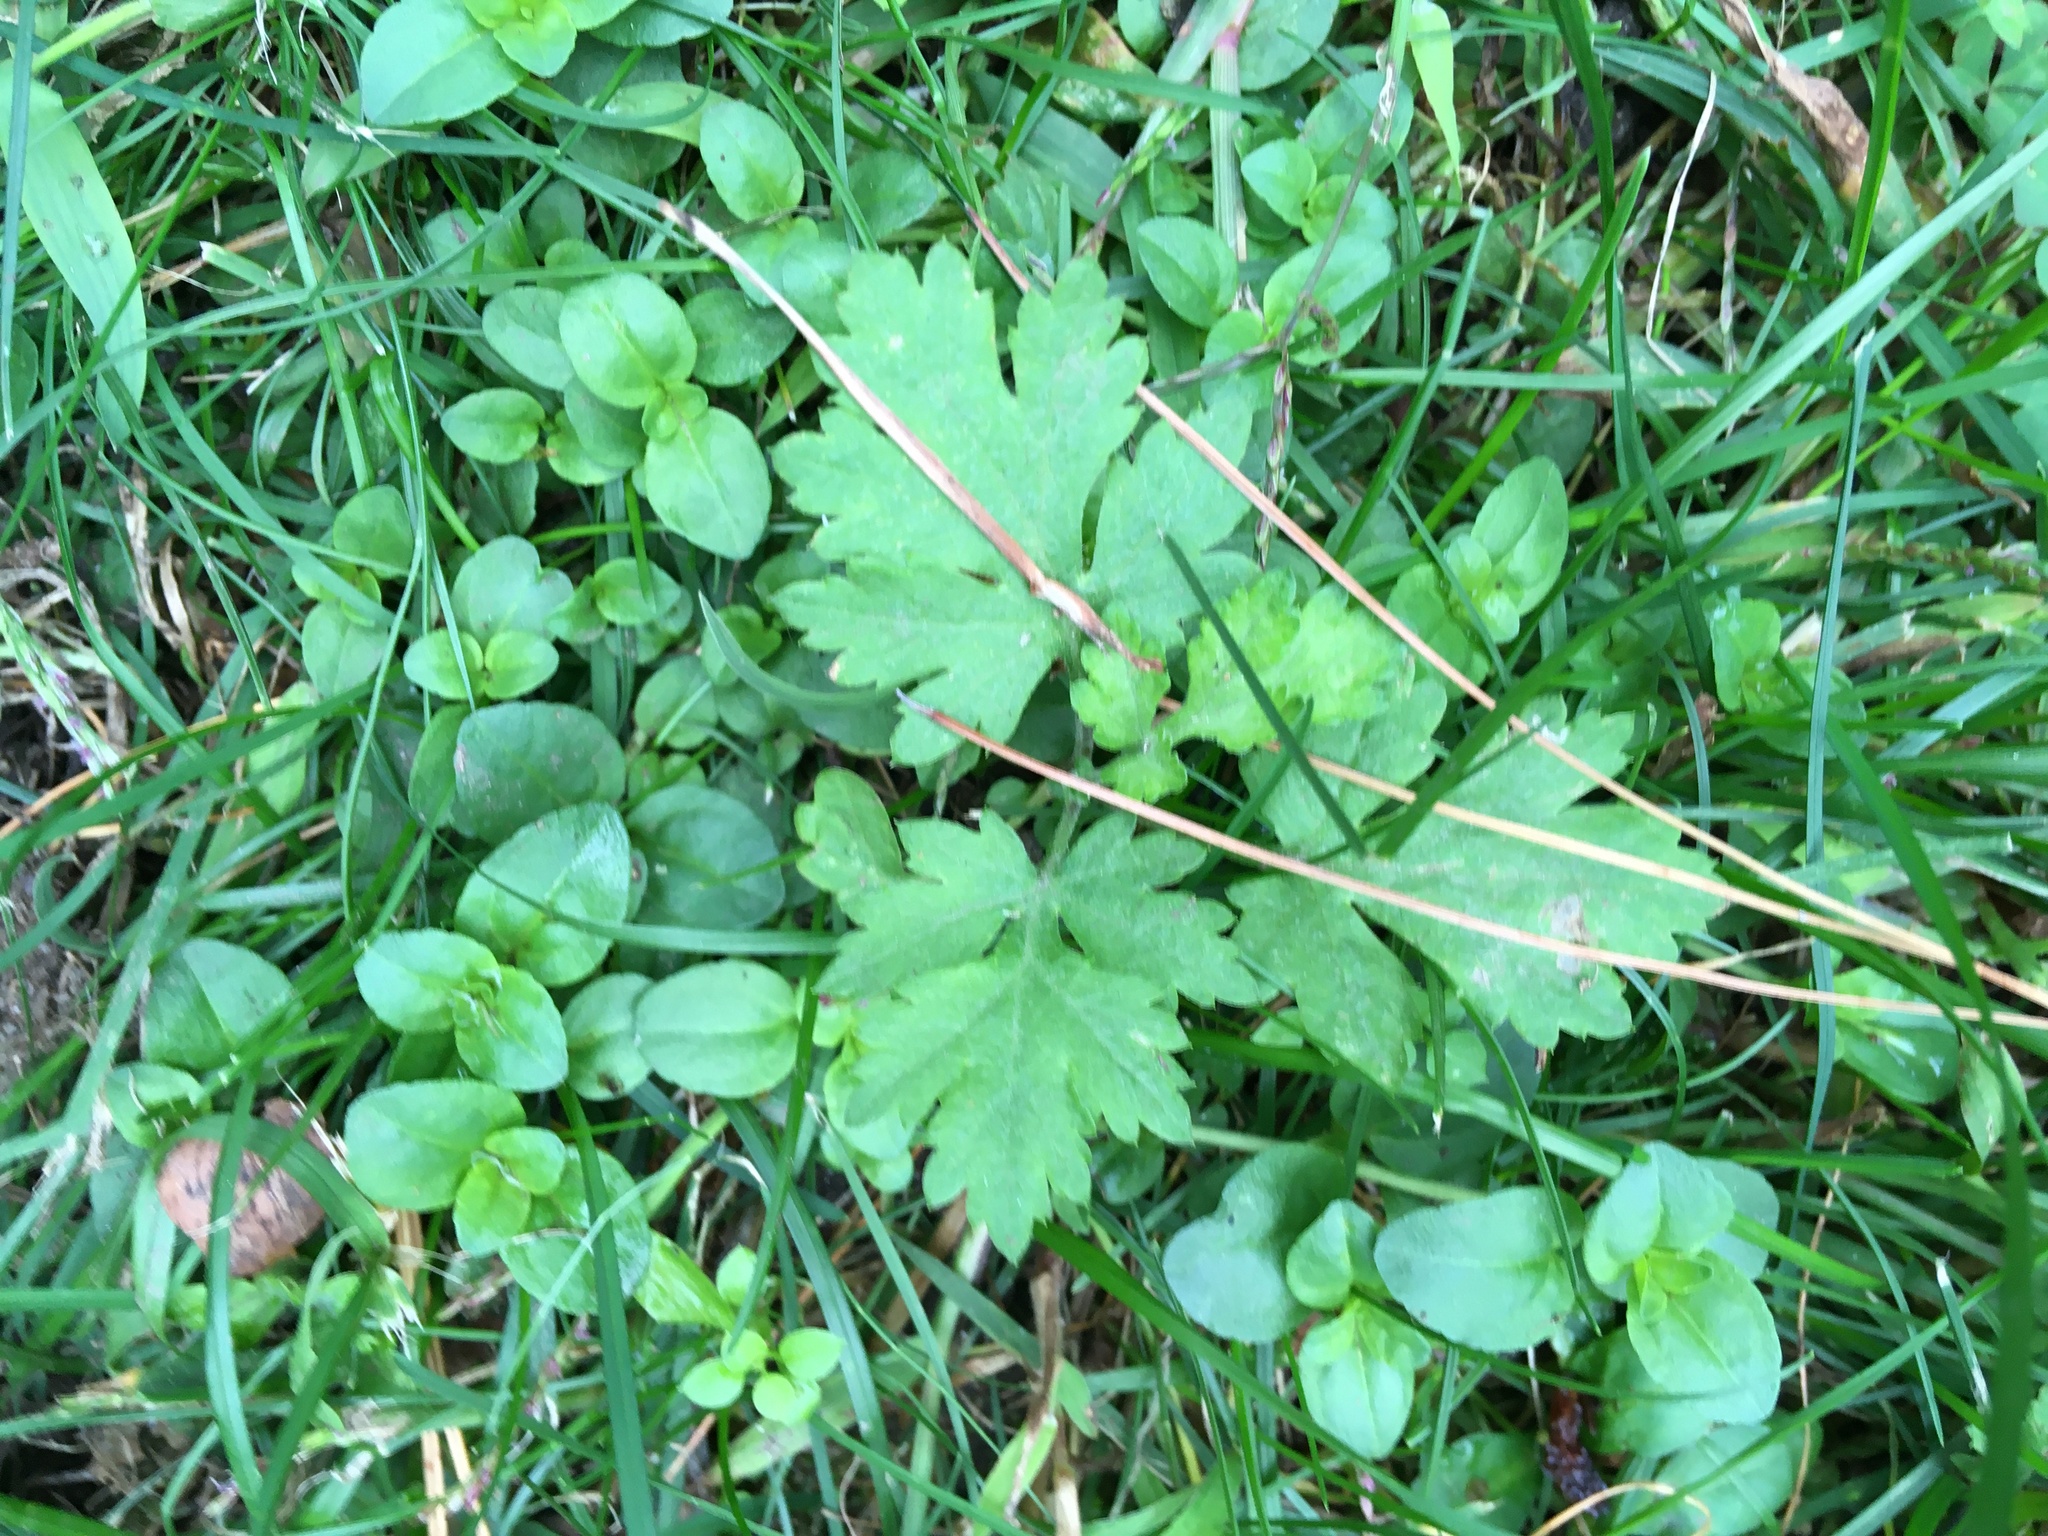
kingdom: Plantae
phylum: Tracheophyta
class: Magnoliopsida
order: Asterales
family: Asteraceae
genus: Artemisia
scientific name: Artemisia vulgaris
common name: Mugwort
